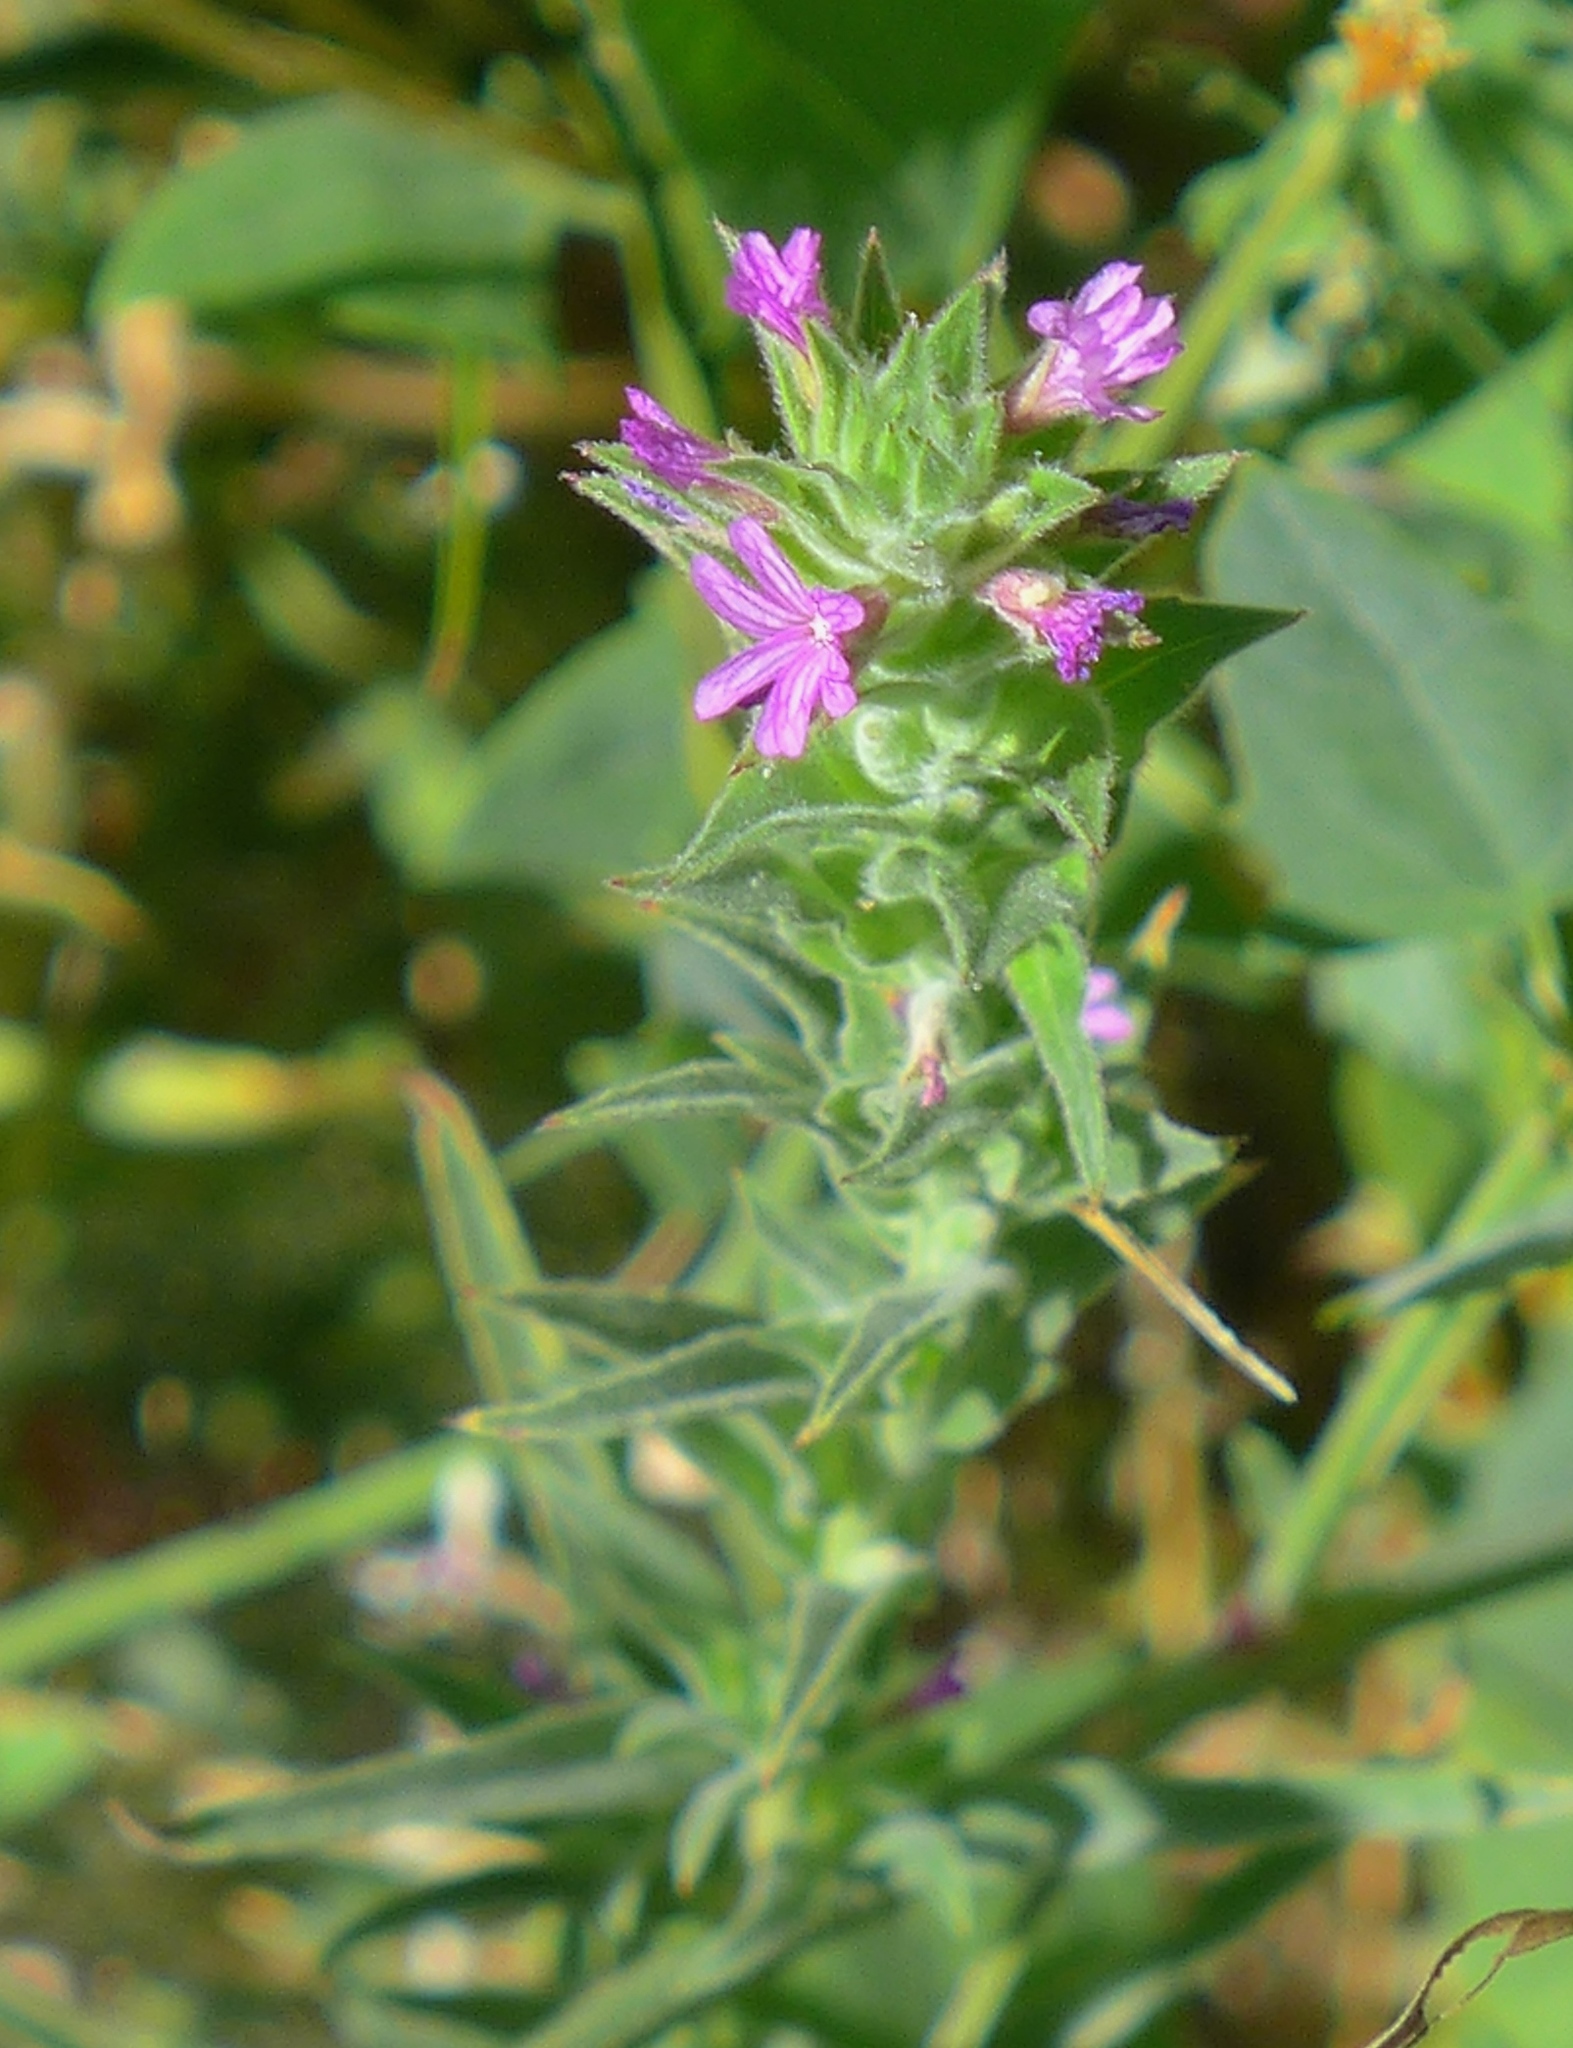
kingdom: Plantae
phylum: Tracheophyta
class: Magnoliopsida
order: Myrtales
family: Onagraceae
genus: Epilobium
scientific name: Epilobium densiflorum
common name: Dense spike-primrose
